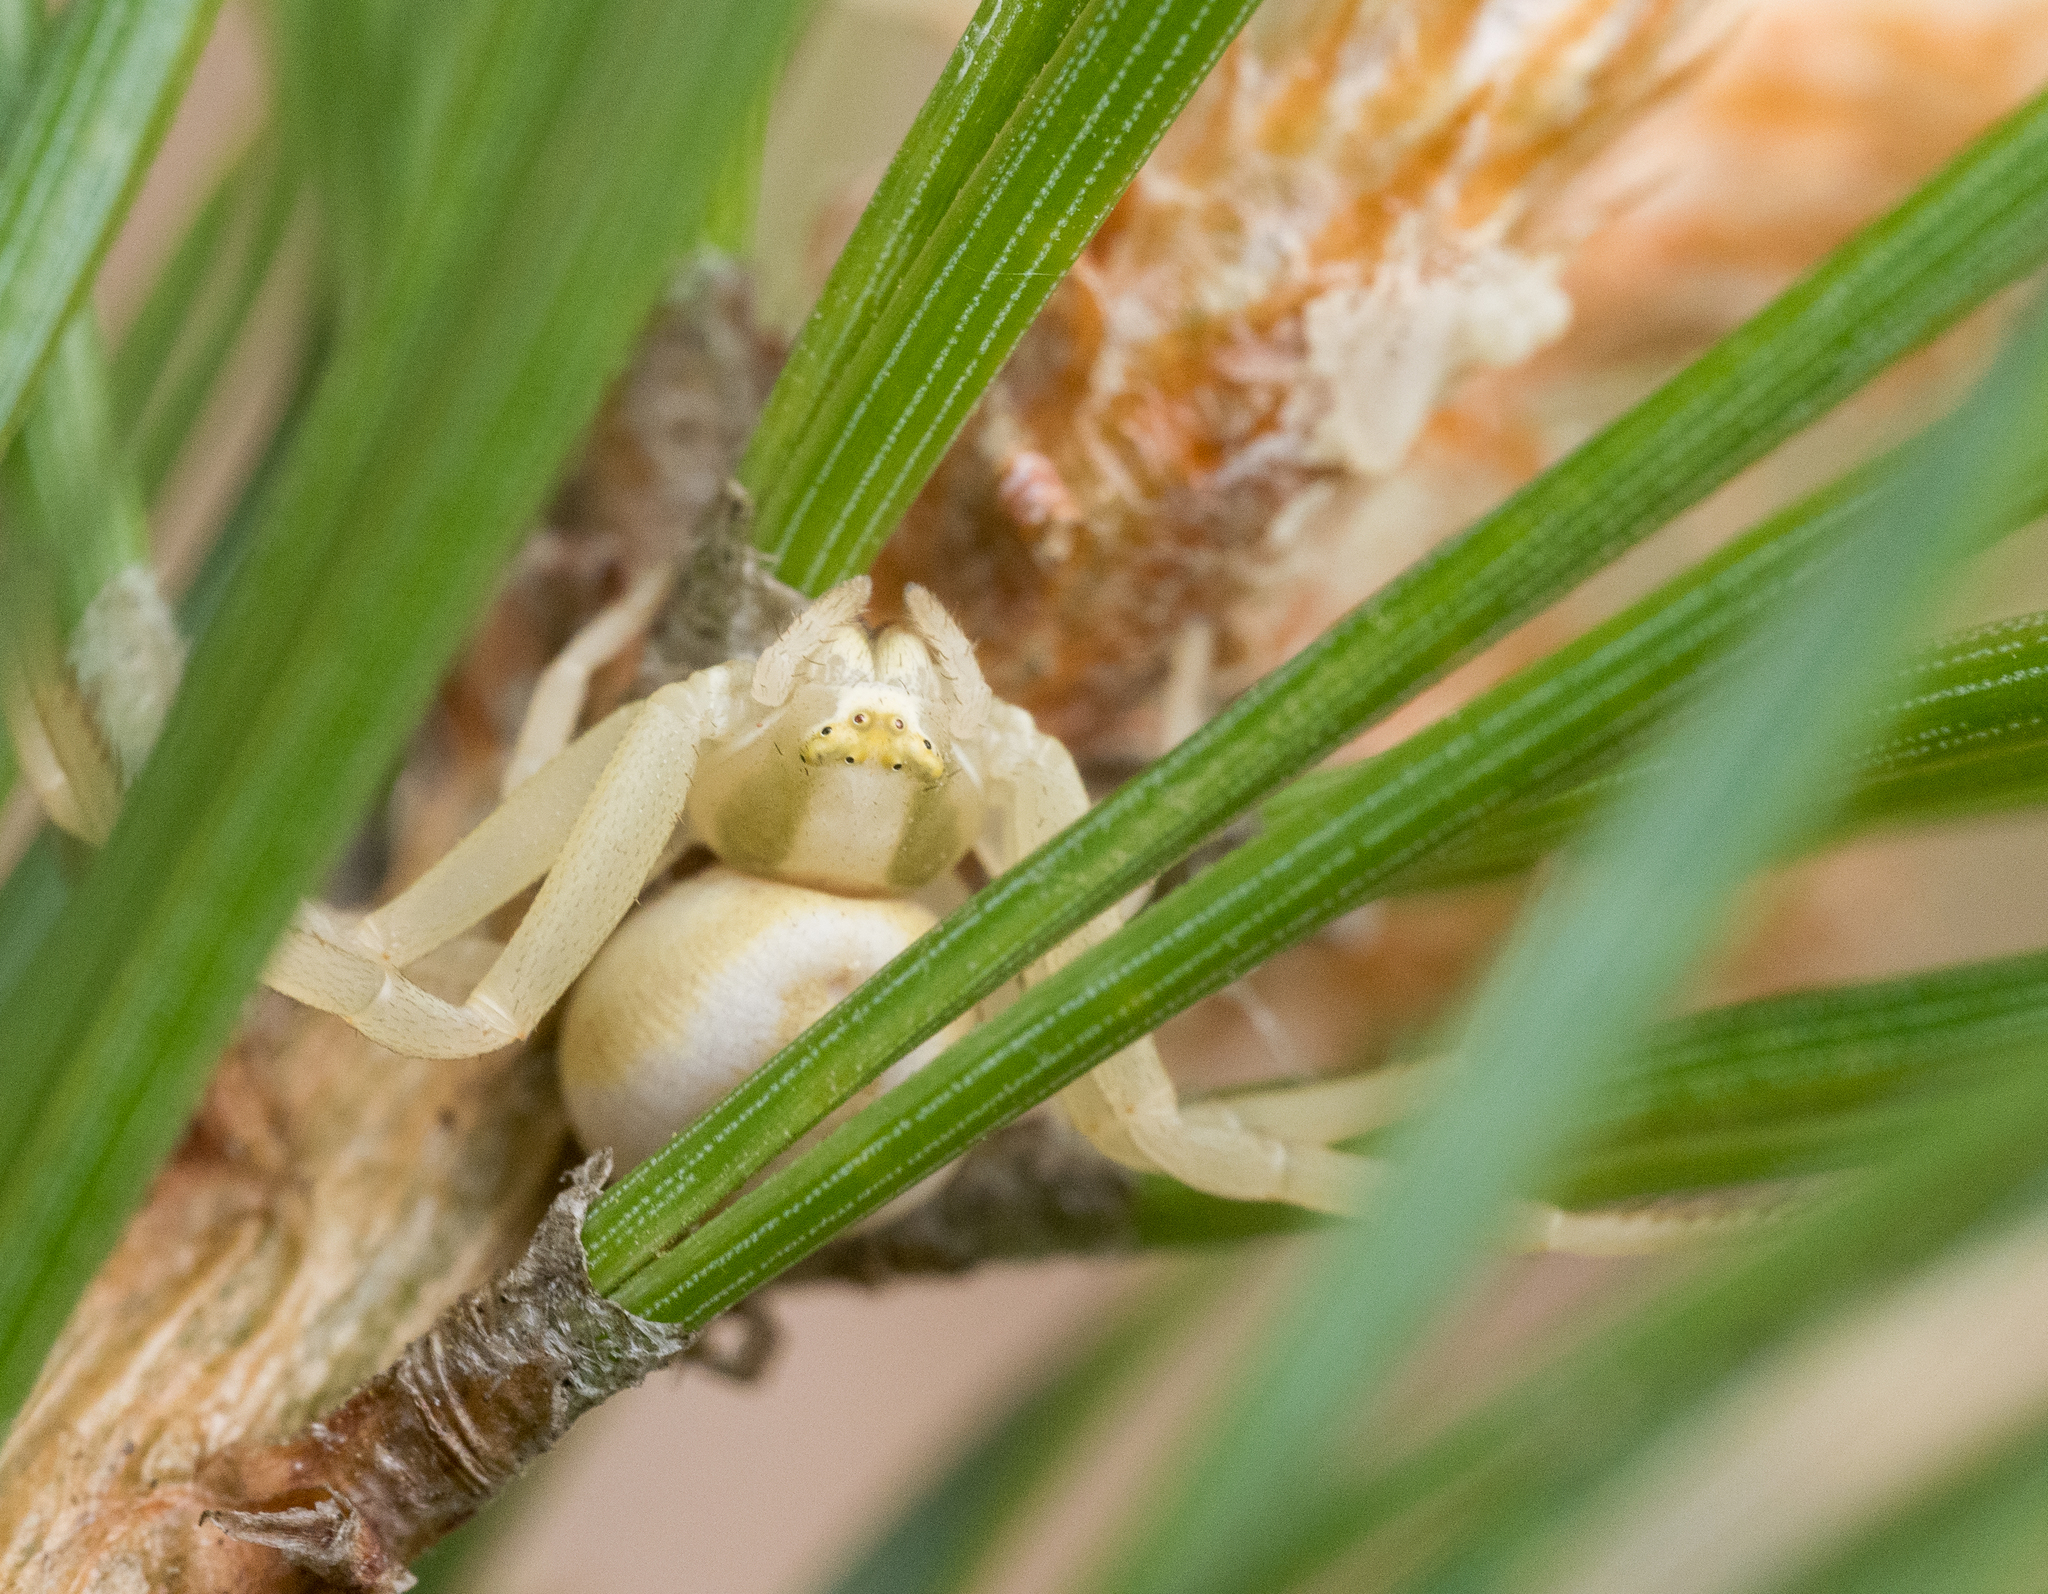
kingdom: Animalia
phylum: Arthropoda
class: Arachnida
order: Araneae
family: Thomisidae
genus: Misumena
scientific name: Misumena vatia
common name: Goldenrod crab spider
